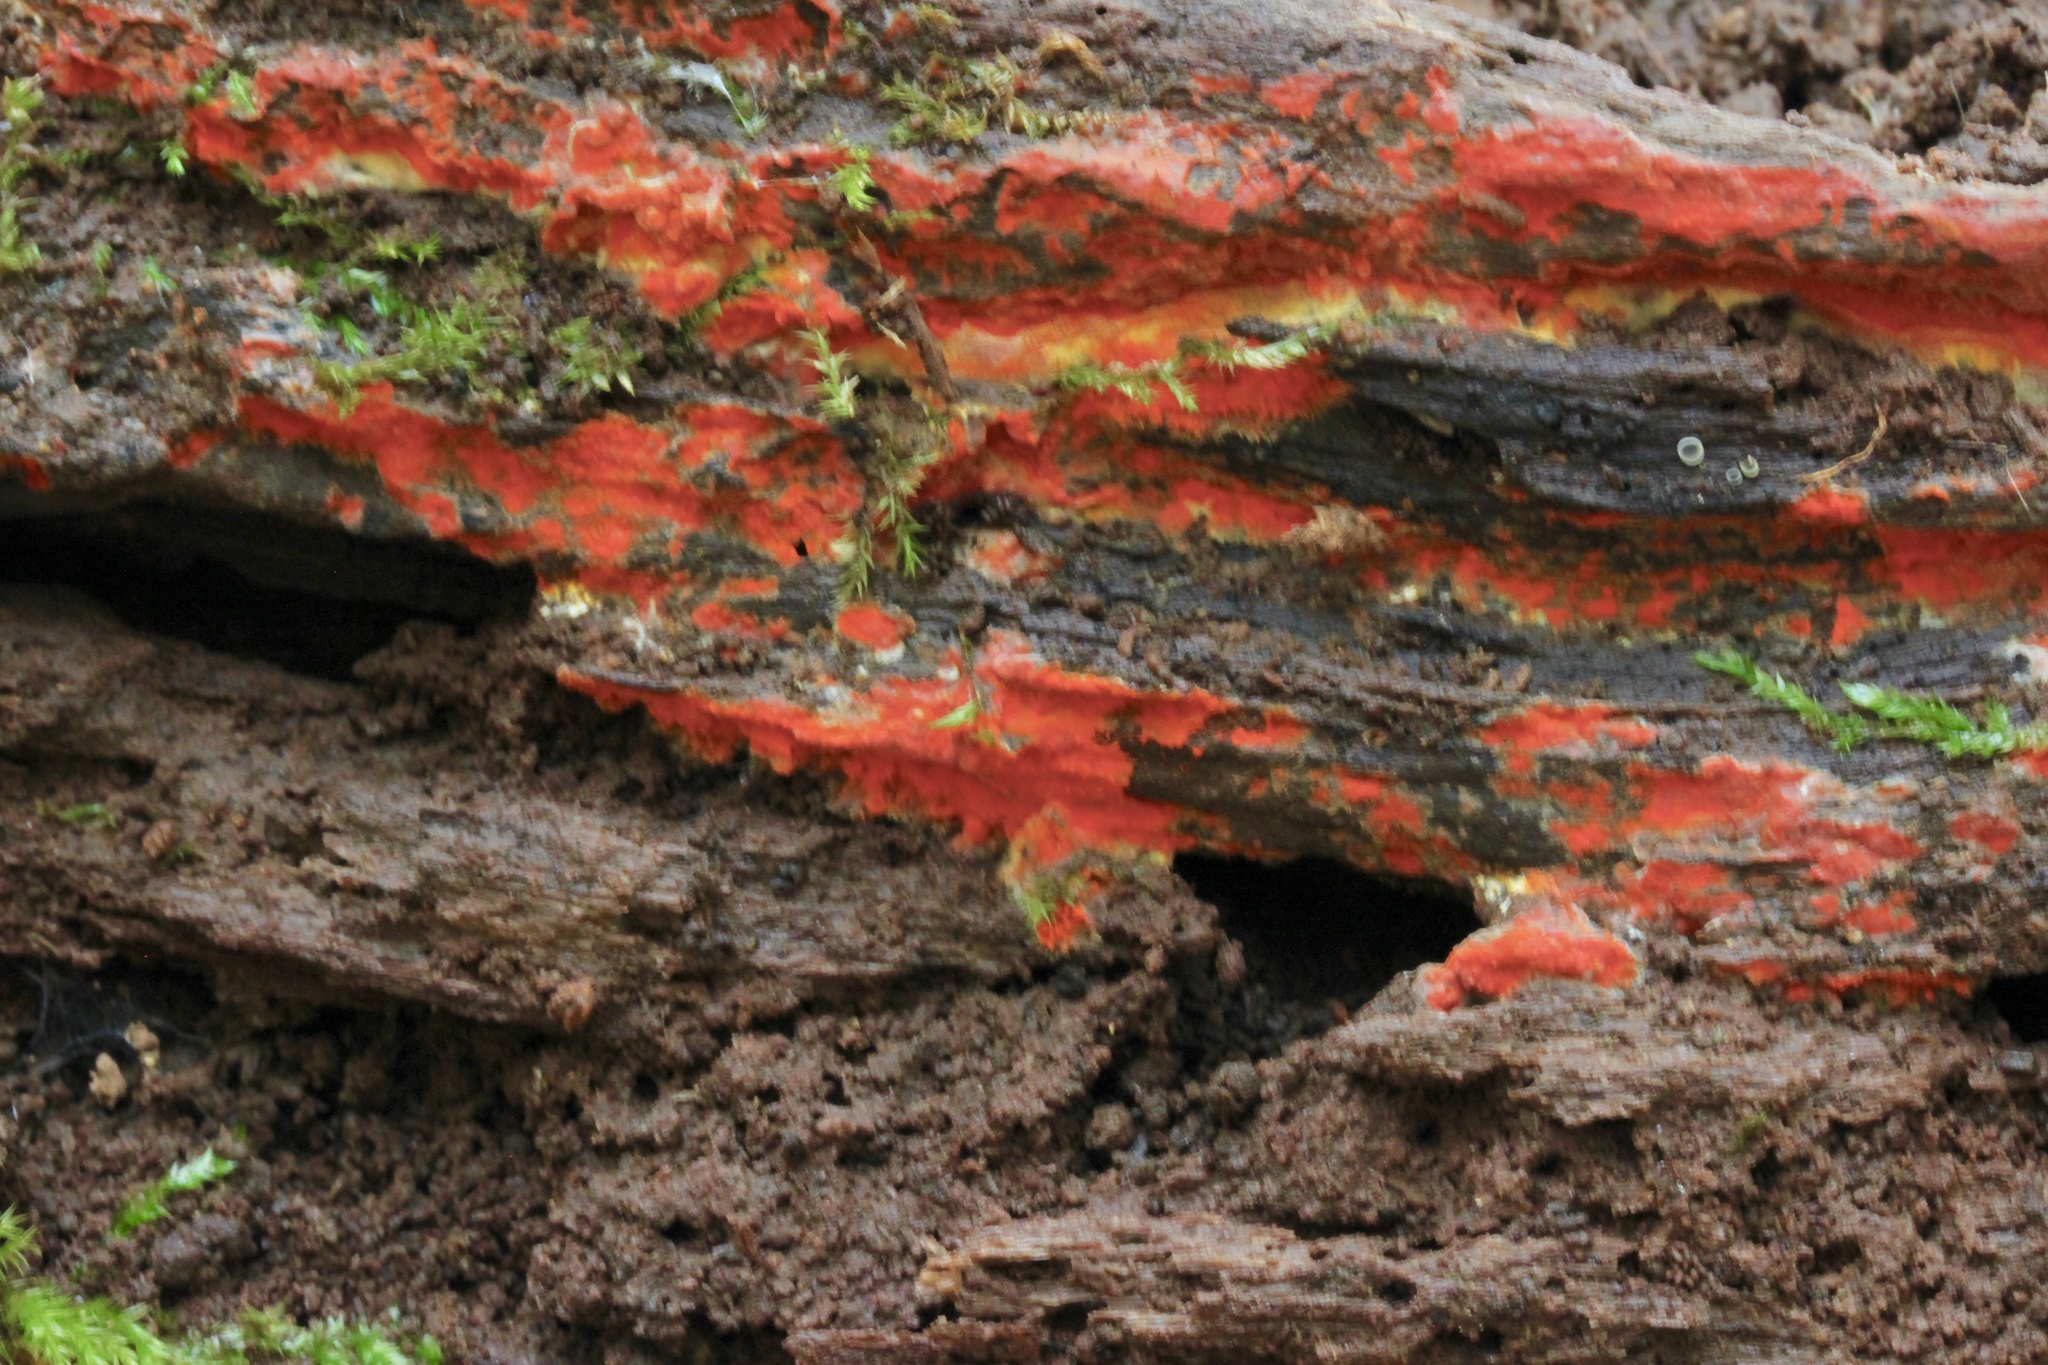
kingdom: Fungi
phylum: Basidiomycota
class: Agaricomycetes
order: Polyporales
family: Meruliaceae
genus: Phlebia
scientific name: Phlebia coccineofulva
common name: Scarlet waxcrust
